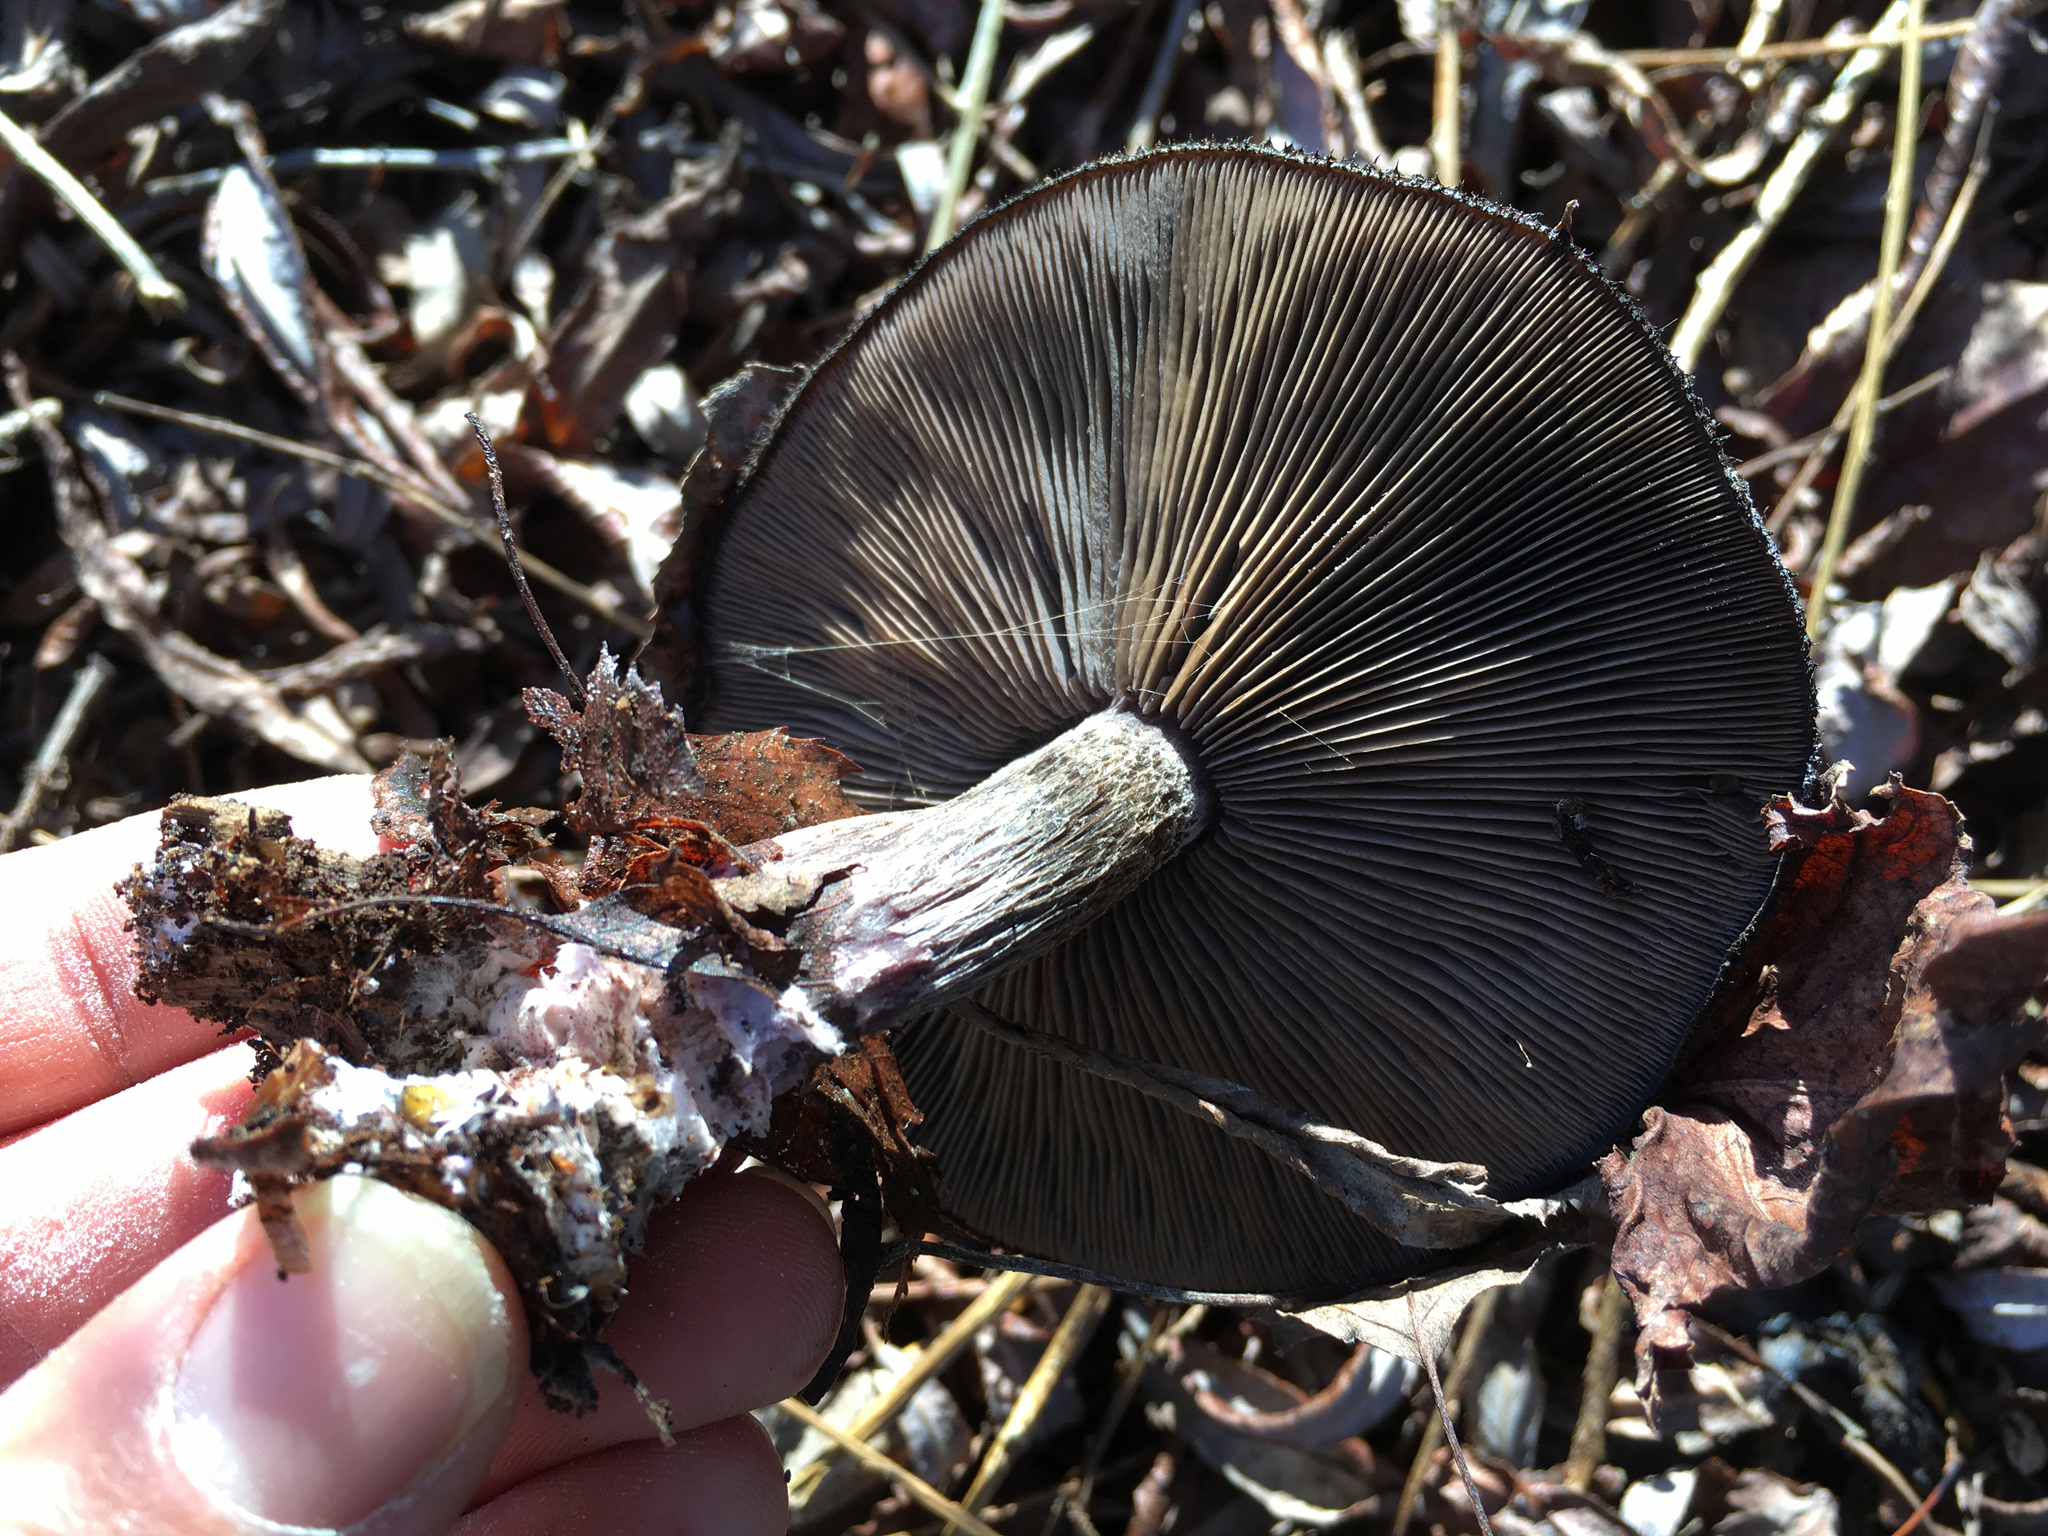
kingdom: Fungi
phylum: Basidiomycota
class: Agaricomycetes
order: Agaricales
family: Tricholomataceae
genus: Collybia
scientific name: Collybia
